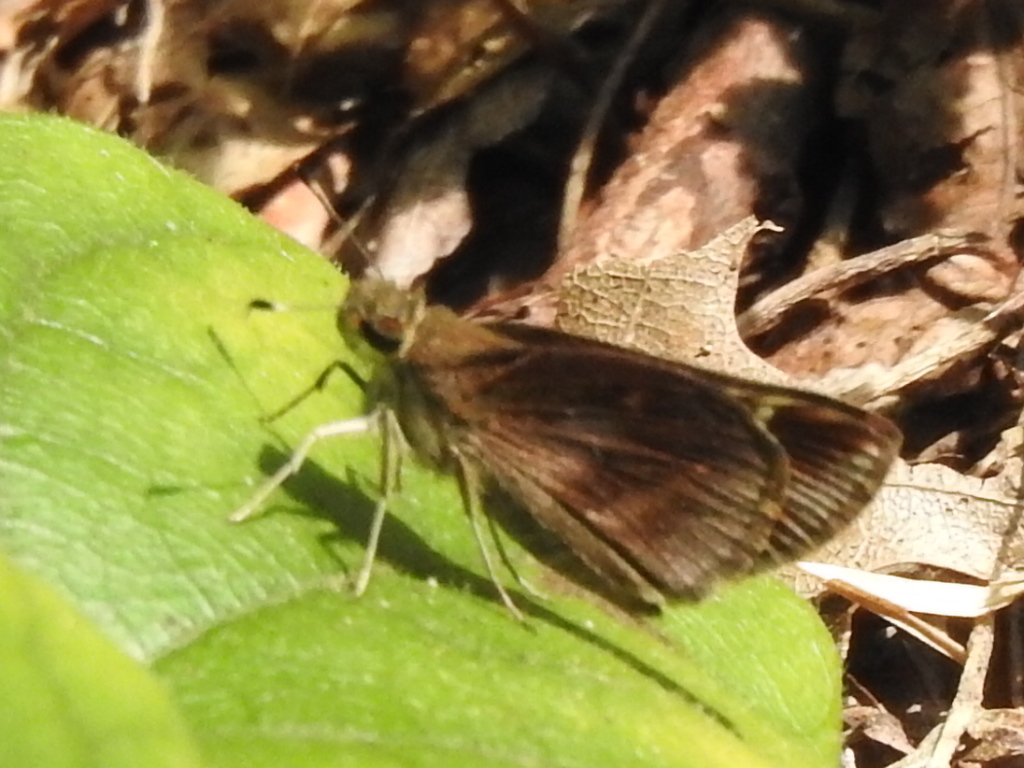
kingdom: Animalia
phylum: Arthropoda
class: Insecta
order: Lepidoptera
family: Hesperiidae
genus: Lerema
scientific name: Lerema accius
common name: Clouded skipper
